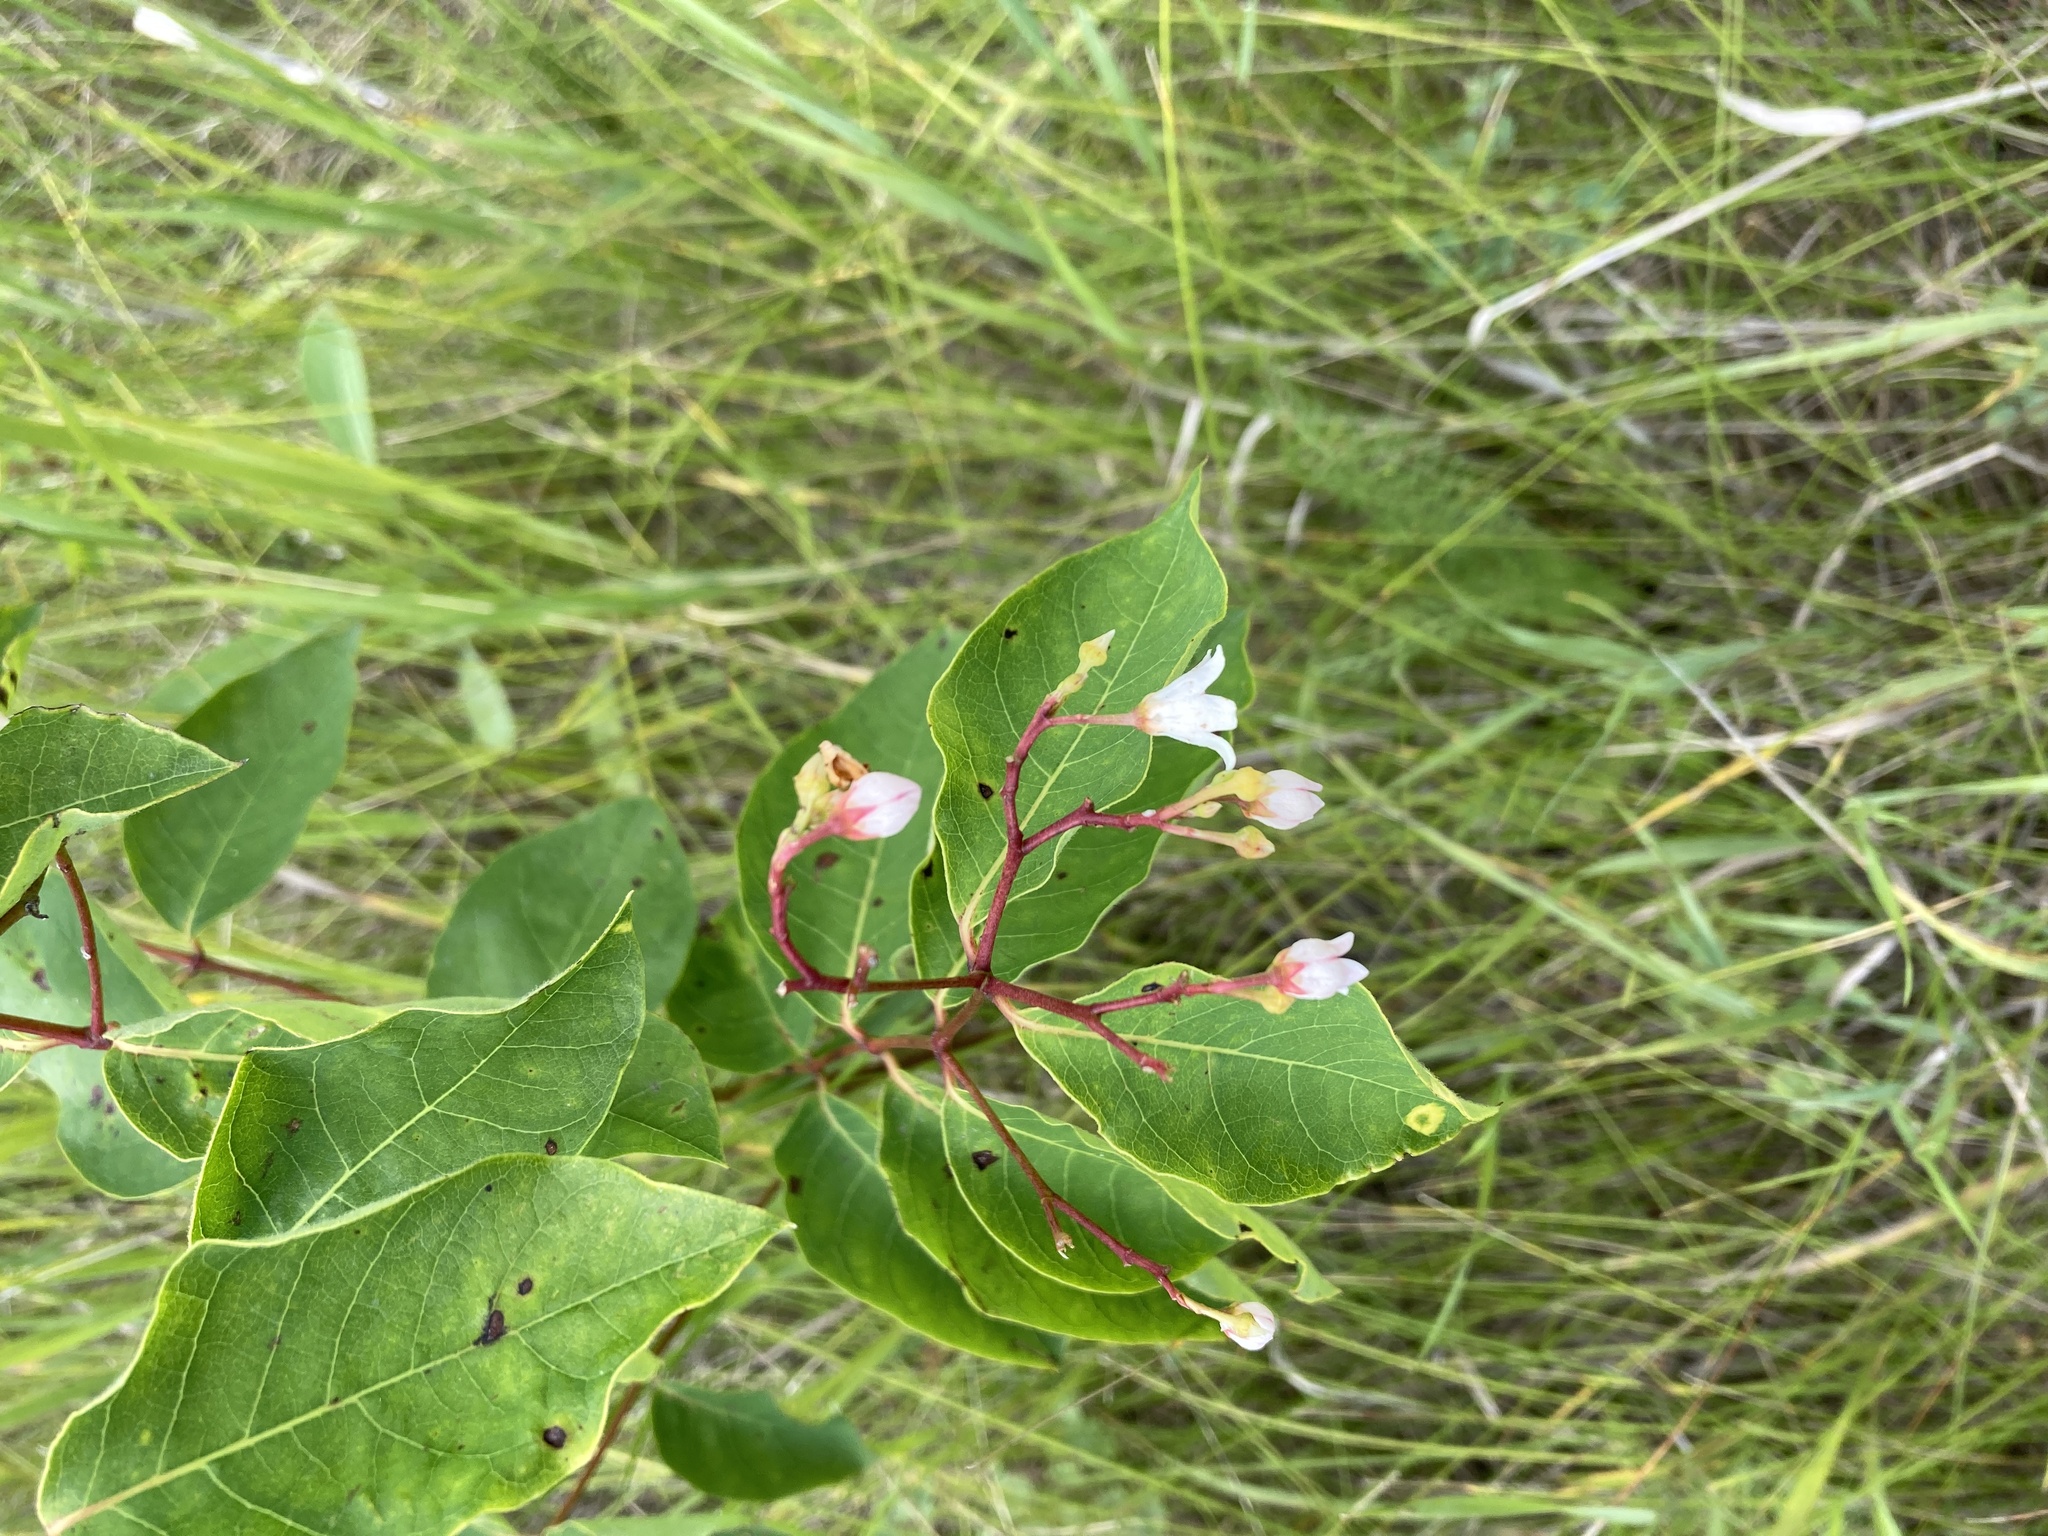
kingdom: Plantae
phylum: Tracheophyta
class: Magnoliopsida
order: Gentianales
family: Apocynaceae
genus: Apocynum
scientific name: Apocynum androsaemifolium
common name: Spreading dogbane
